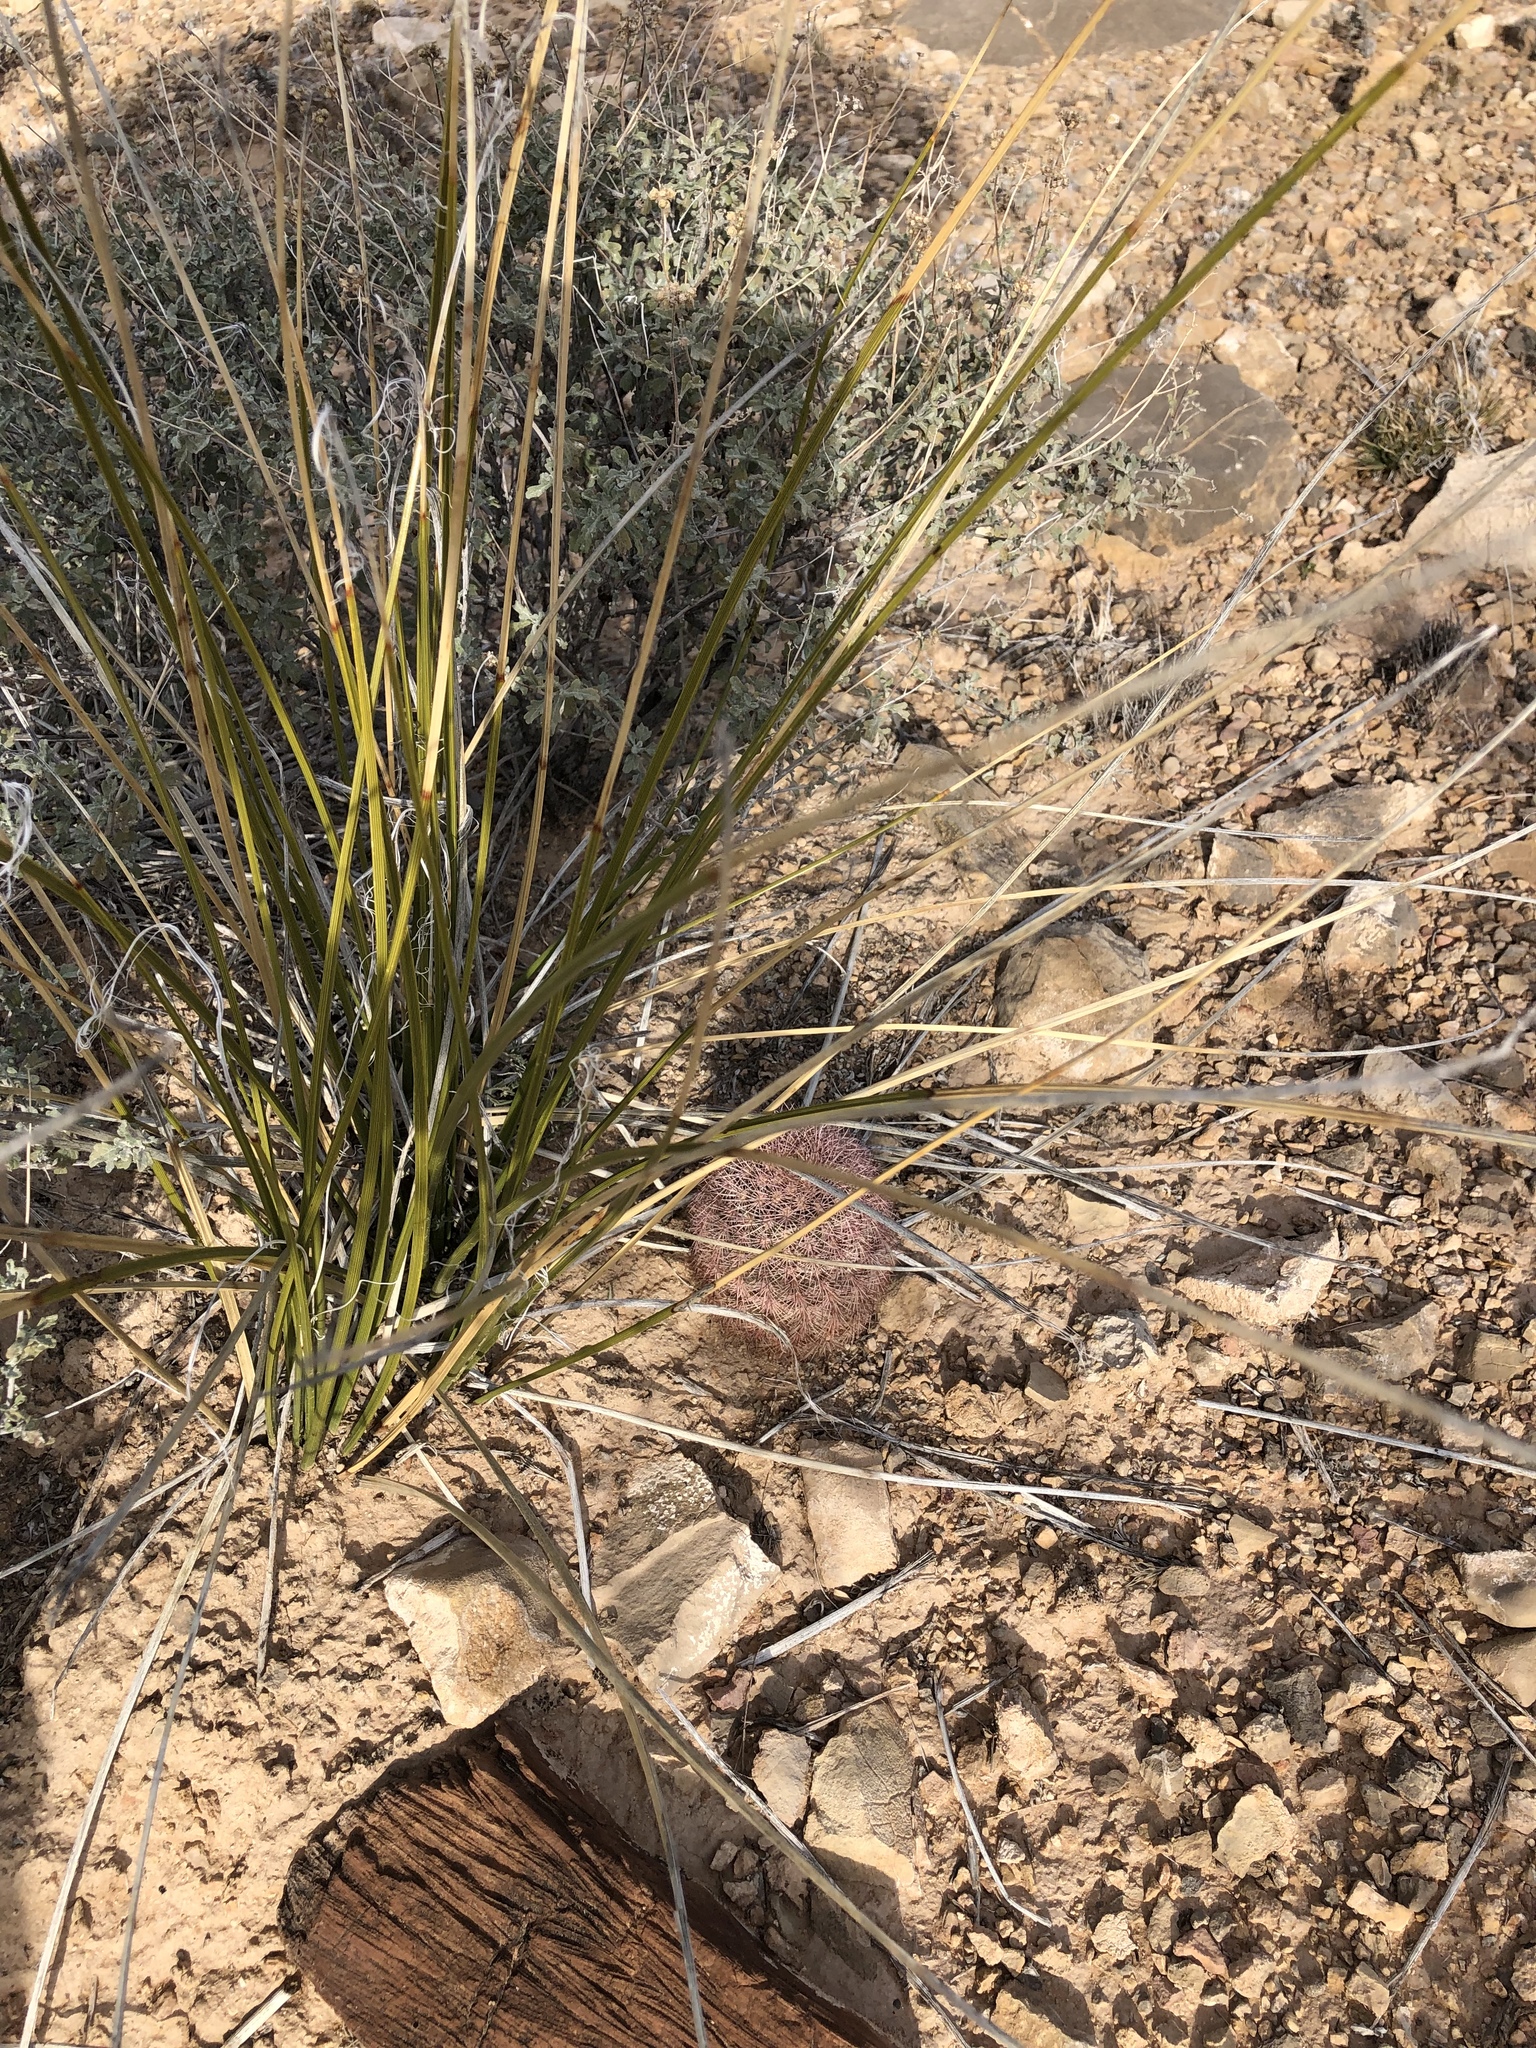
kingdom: Plantae
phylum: Tracheophyta
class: Liliopsida
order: Asparagales
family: Asparagaceae
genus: Nolina
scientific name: Nolina texana
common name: Texas sacahuiste
